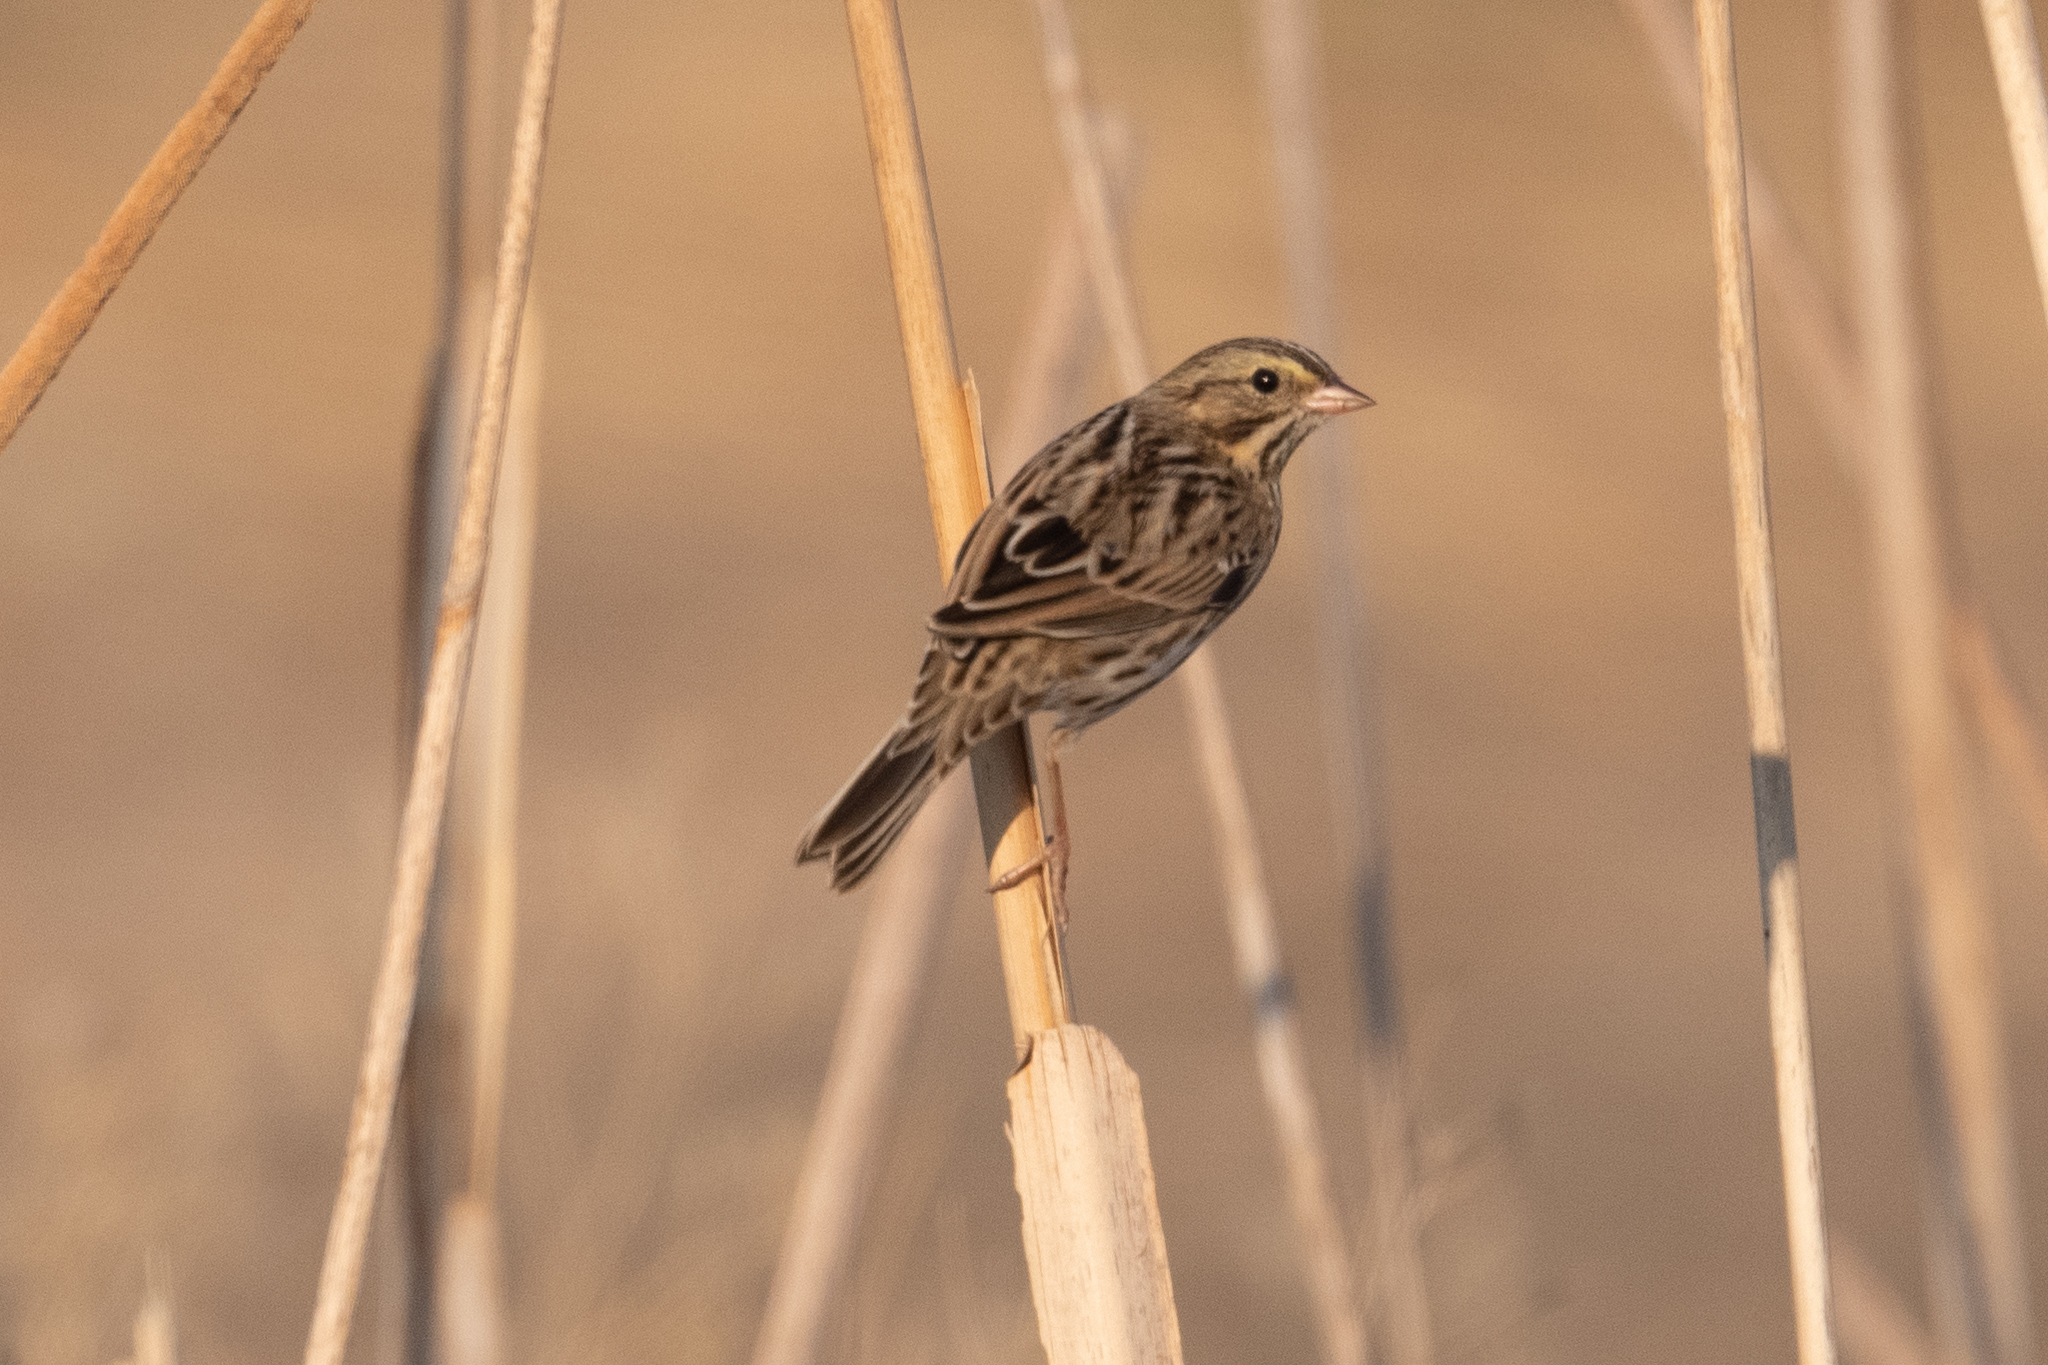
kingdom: Animalia
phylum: Chordata
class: Aves
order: Passeriformes
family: Passerellidae
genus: Passerculus
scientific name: Passerculus sandwichensis
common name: Savannah sparrow
